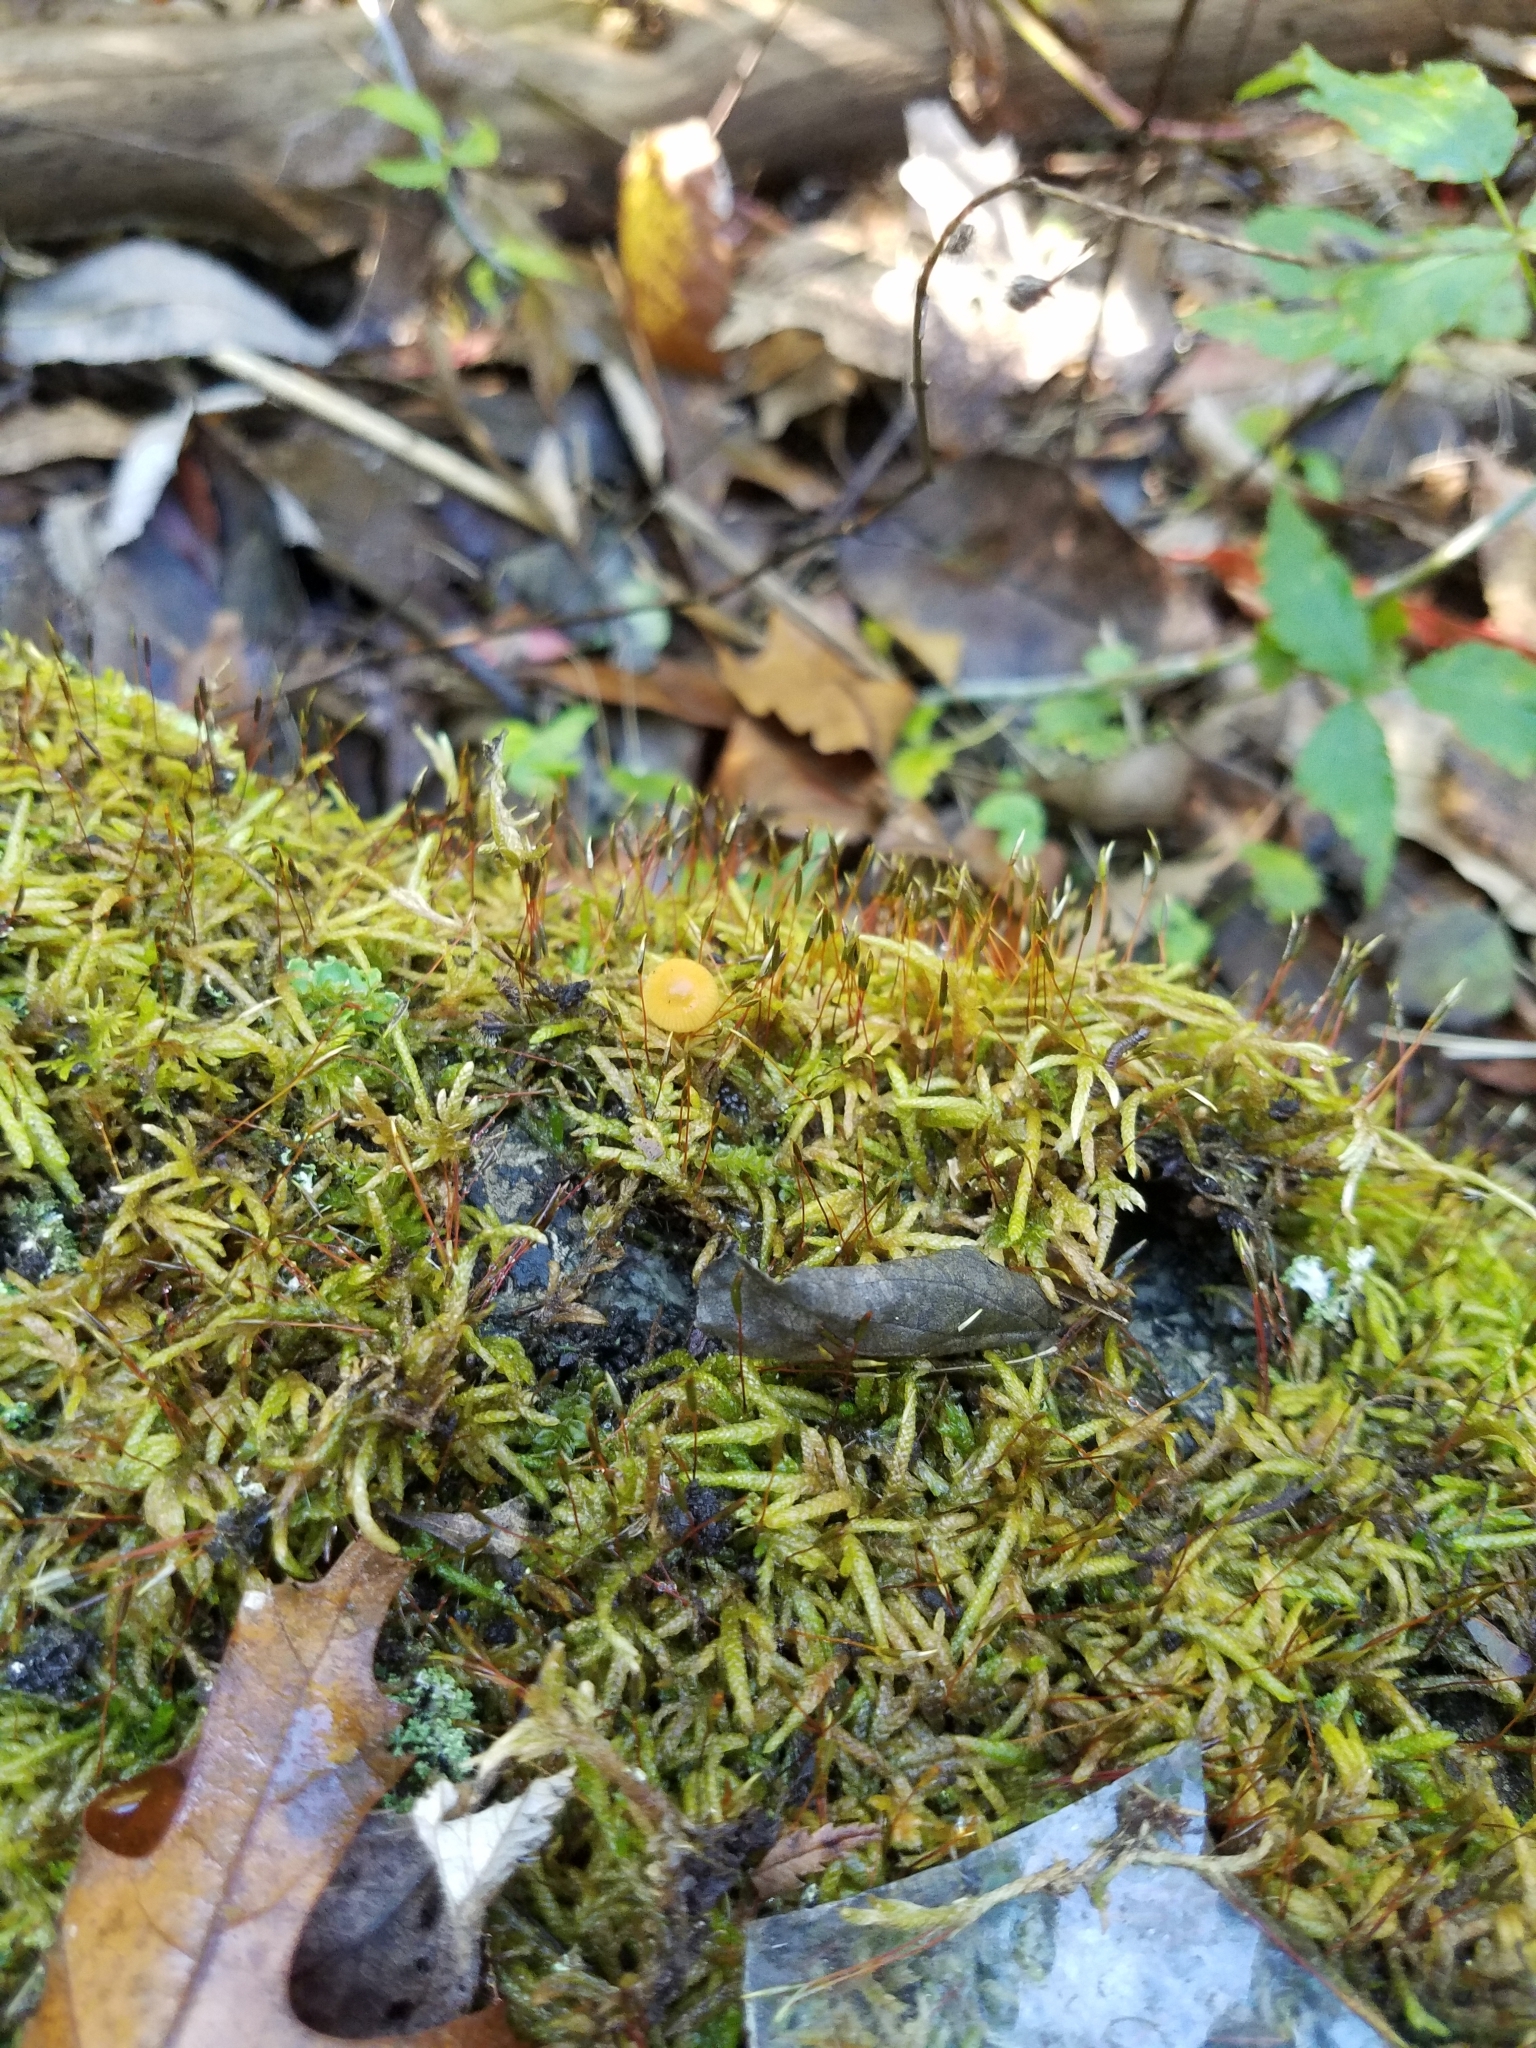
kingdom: Plantae
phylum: Bryophyta
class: Bryopsida
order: Hypnales
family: Entodontaceae
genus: Entodon
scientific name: Entodon seductrix
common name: Round-stemmed entodon moss
